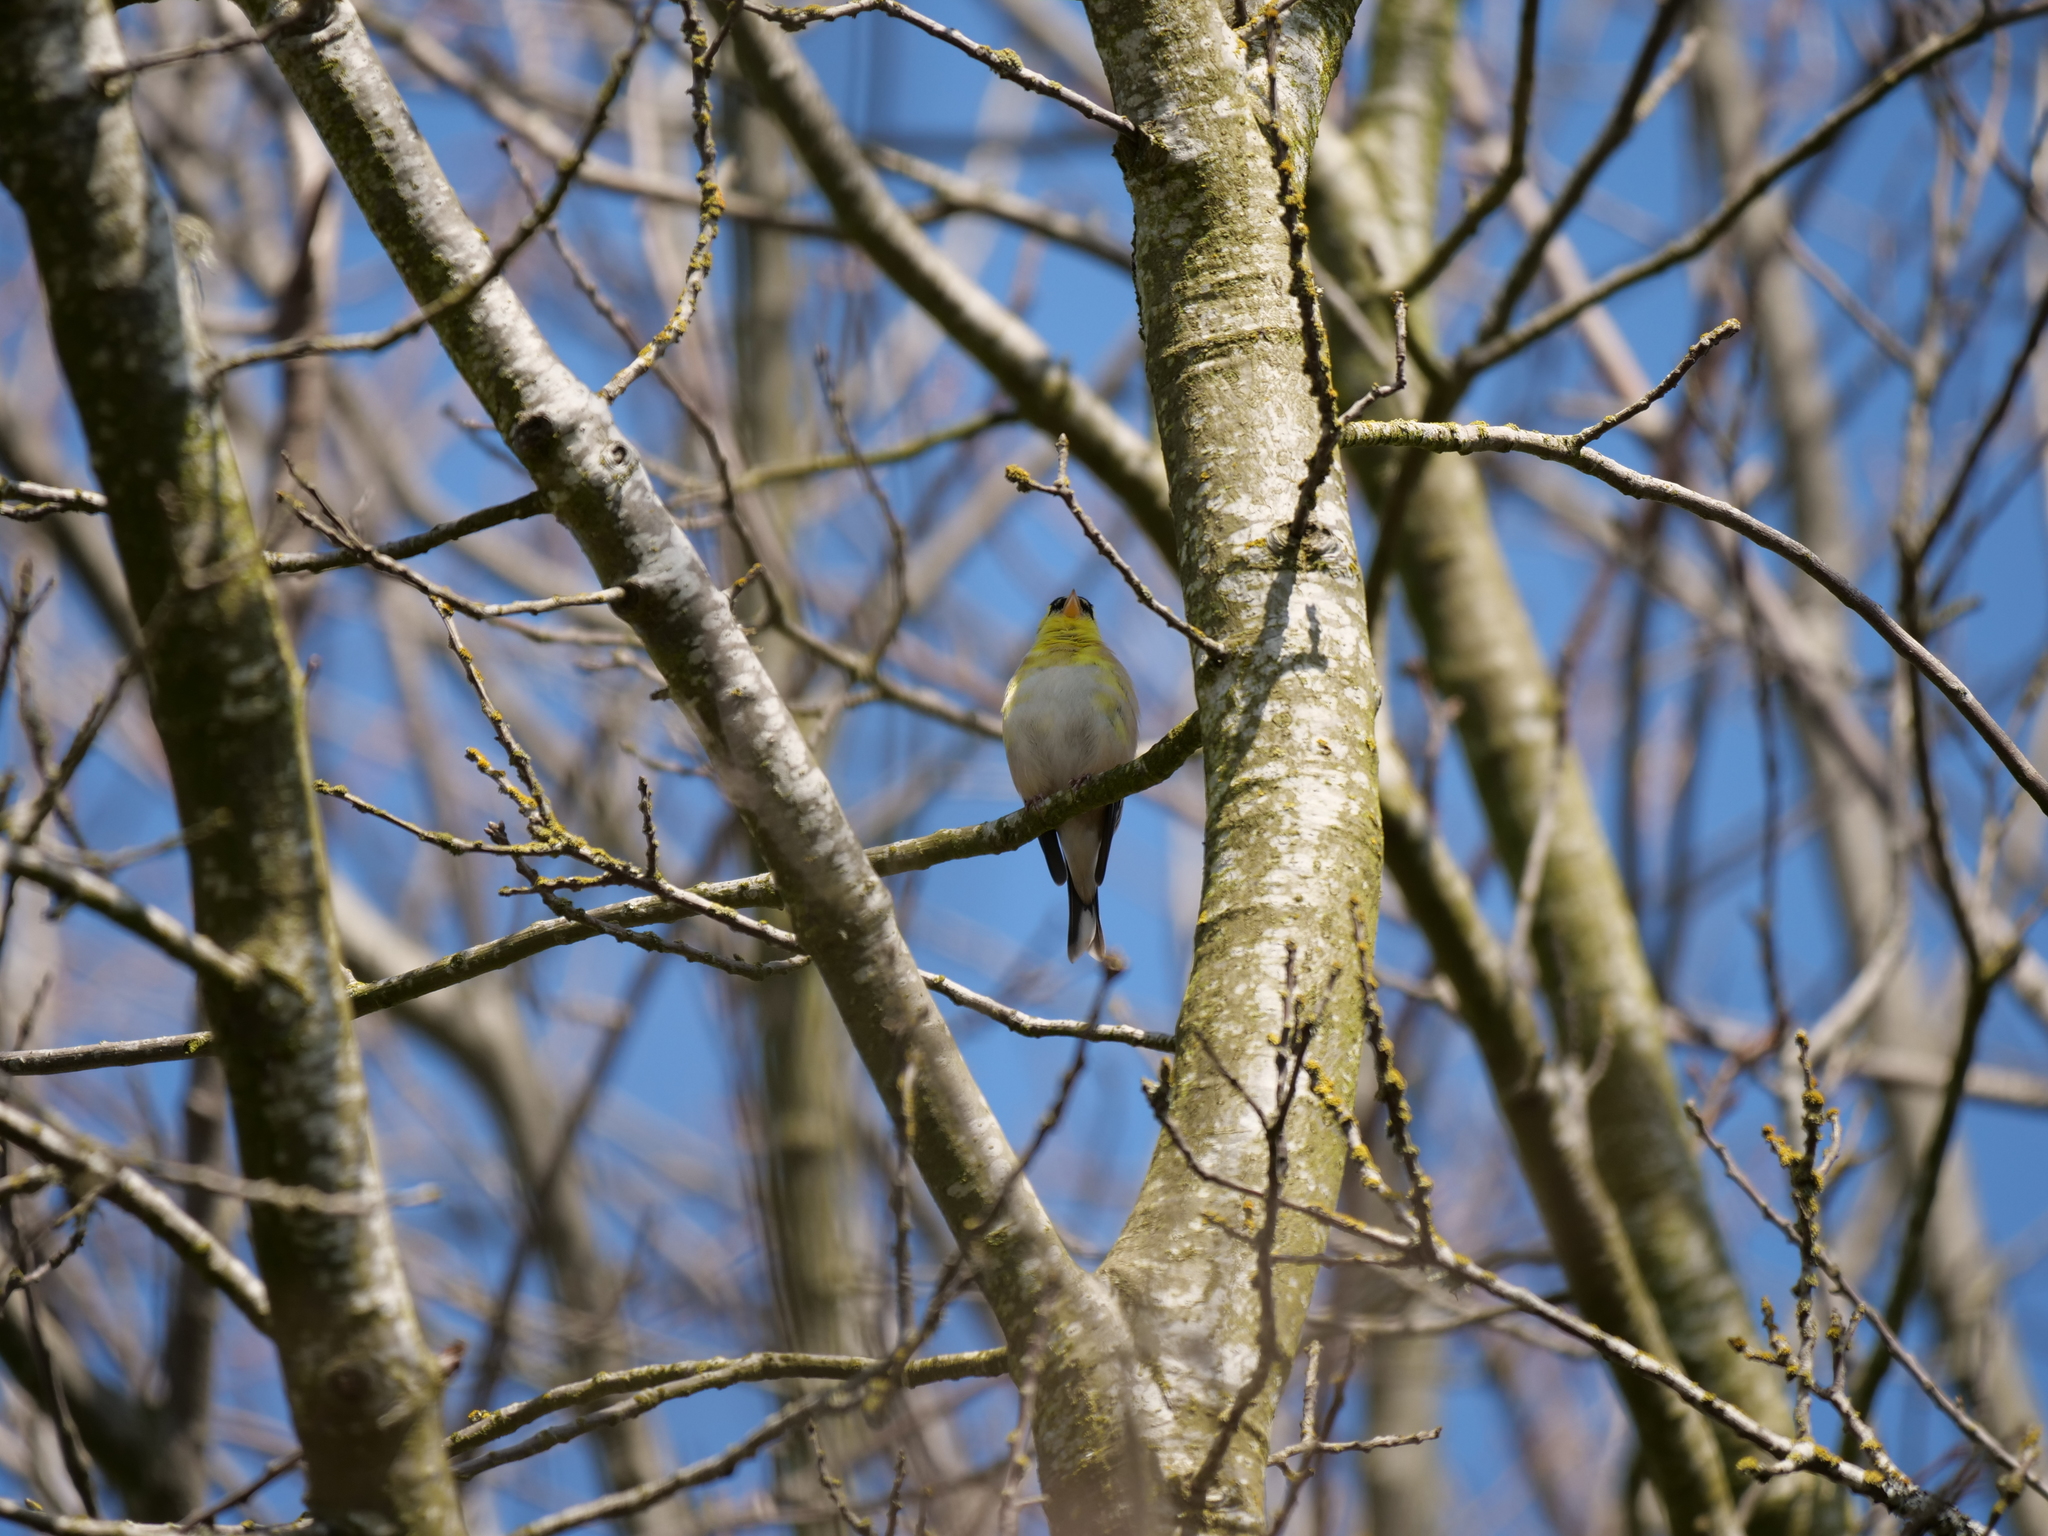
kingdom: Animalia
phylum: Chordata
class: Aves
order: Passeriformes
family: Fringillidae
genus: Spinus
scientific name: Spinus tristis
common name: American goldfinch
